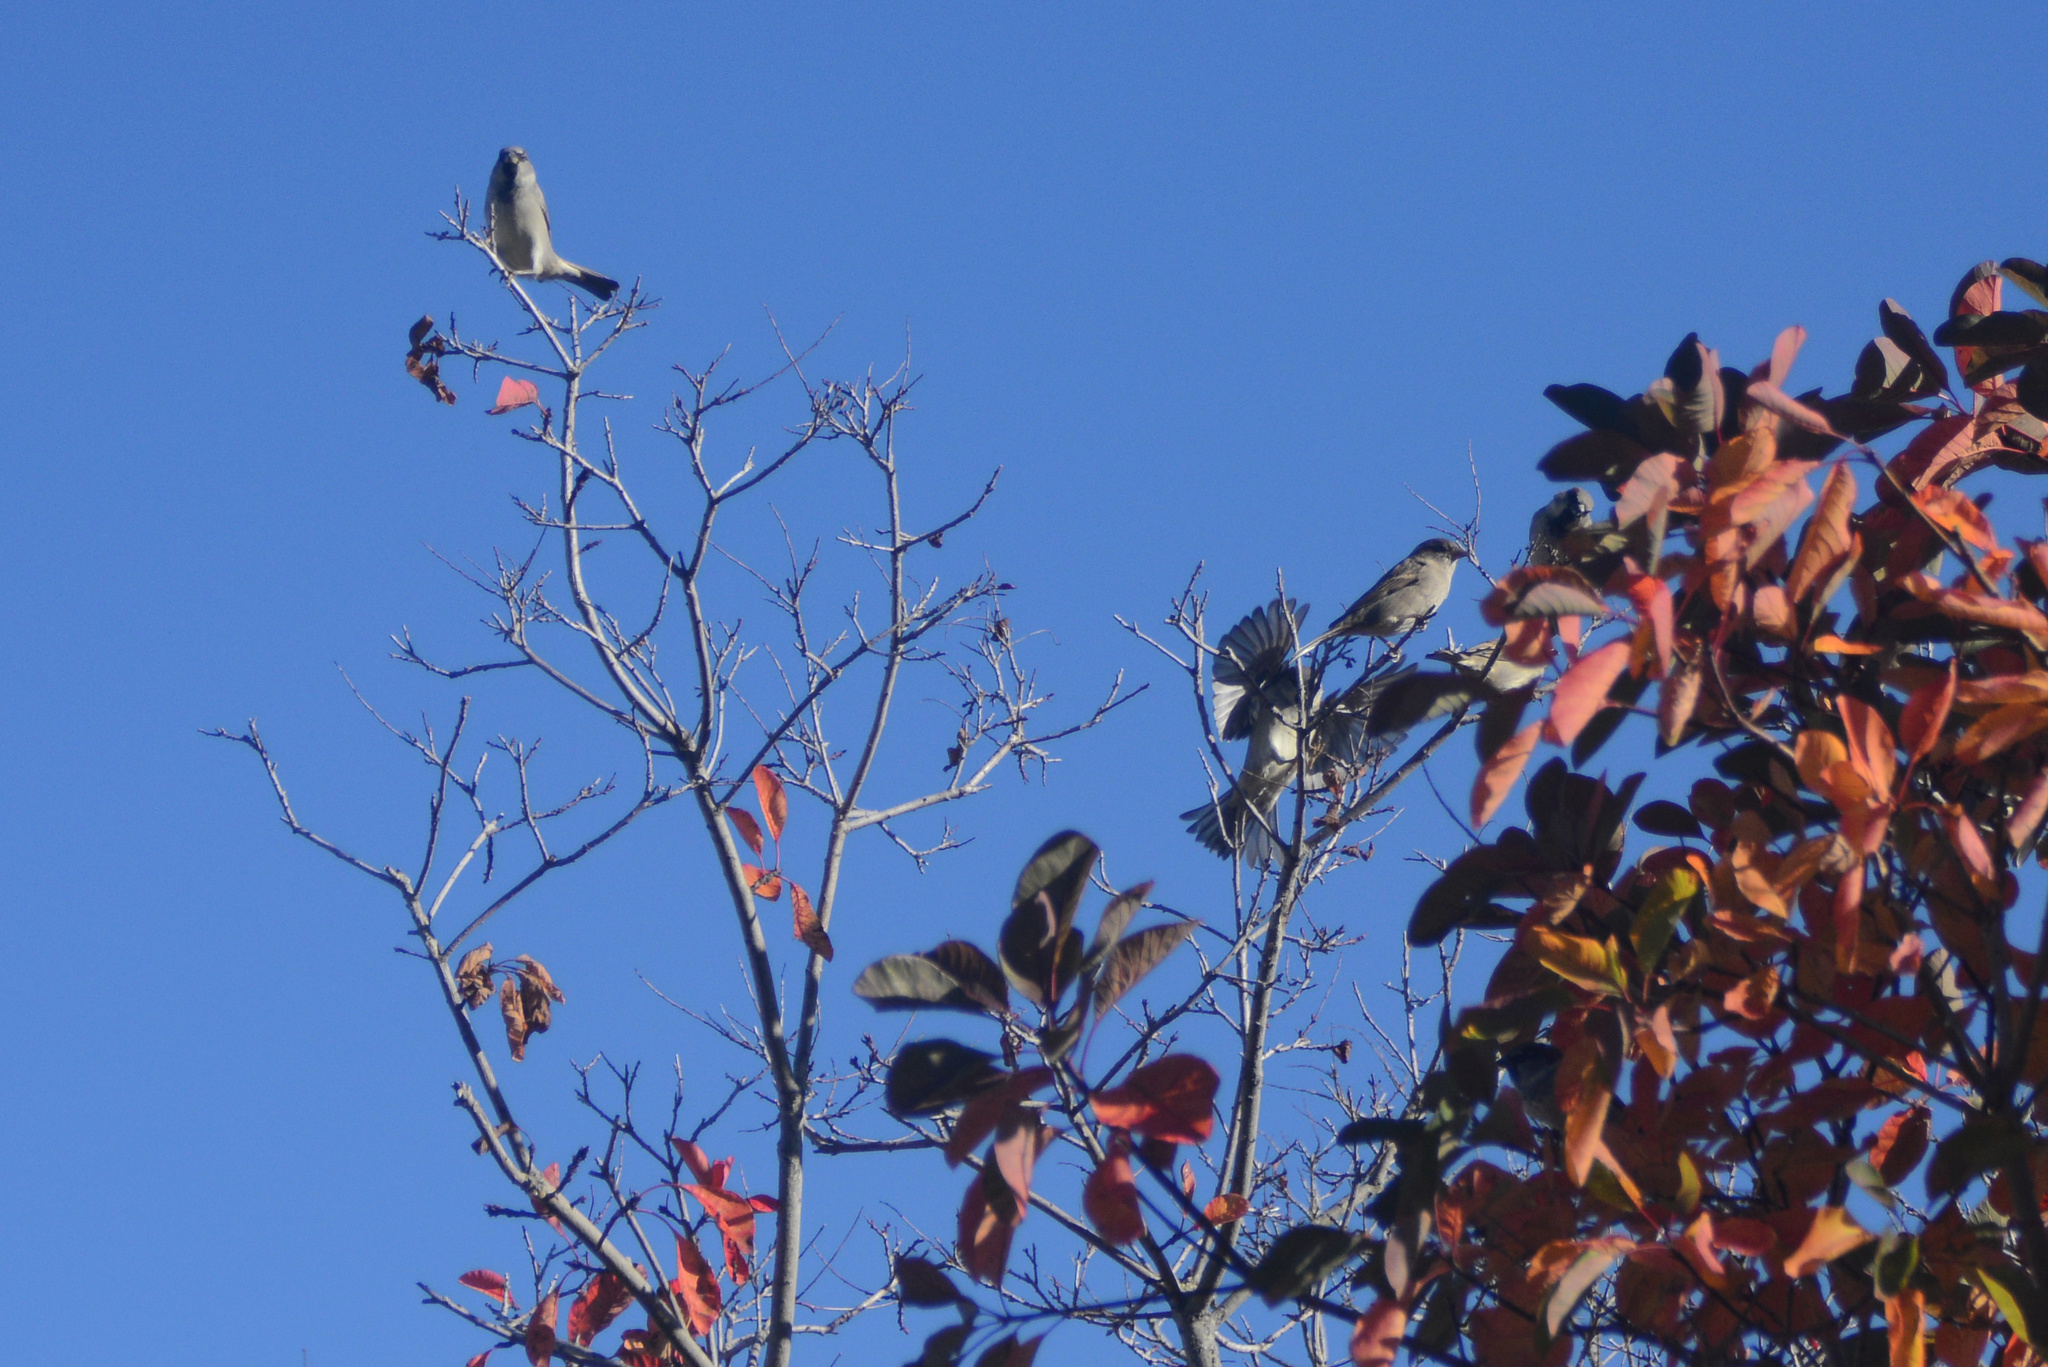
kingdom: Animalia
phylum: Chordata
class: Aves
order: Passeriformes
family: Passeridae
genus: Passer
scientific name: Passer domesticus
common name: House sparrow
